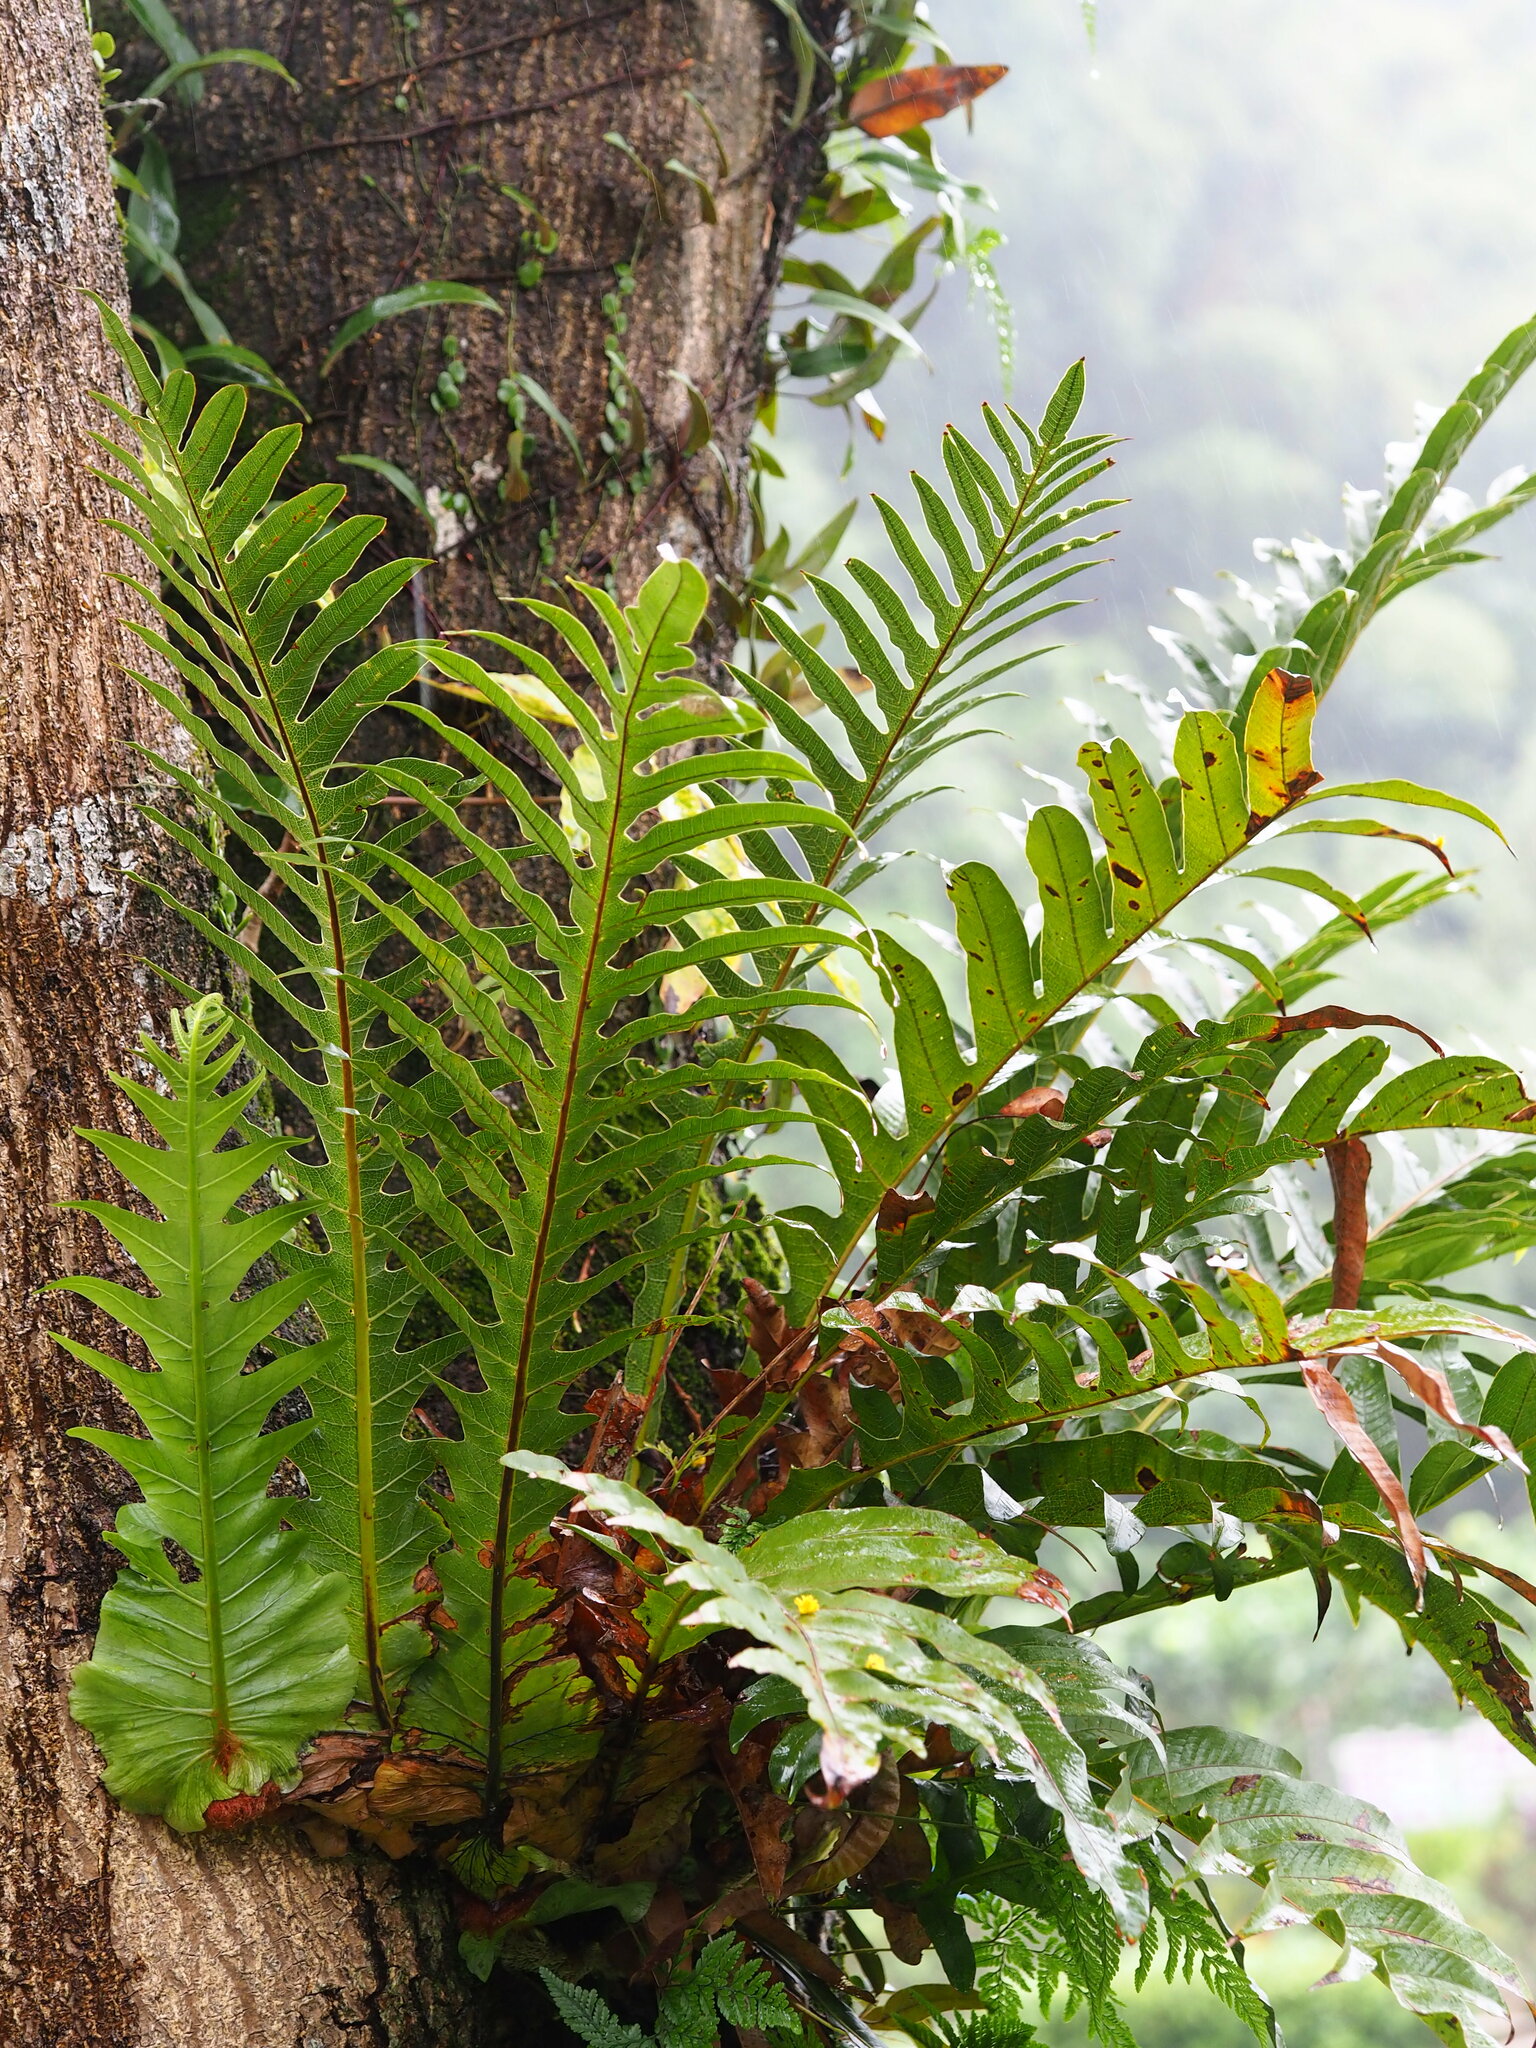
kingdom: Plantae
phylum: Tracheophyta
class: Polypodiopsida
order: Polypodiales
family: Polypodiaceae
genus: Drynaria
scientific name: Drynaria coronans
